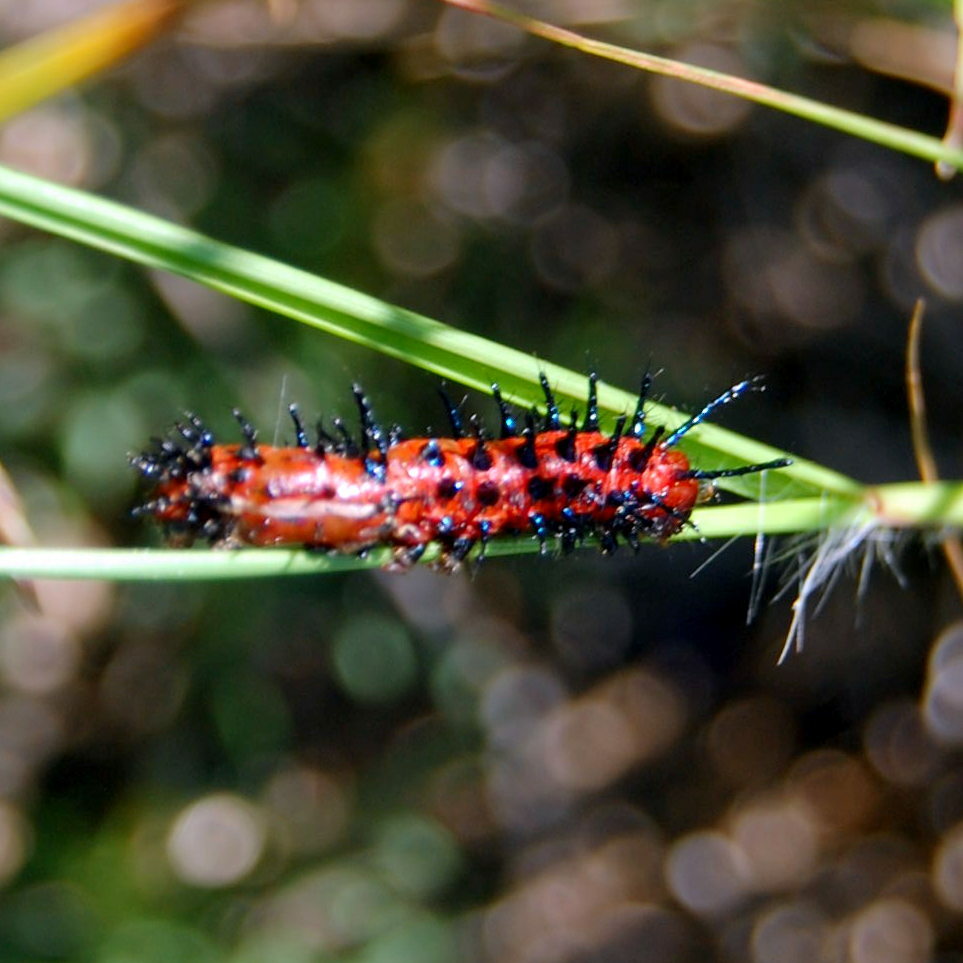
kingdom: Animalia
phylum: Arthropoda
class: Insecta
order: Lepidoptera
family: Nymphalidae
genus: Euptoieta
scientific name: Euptoieta hortensia
